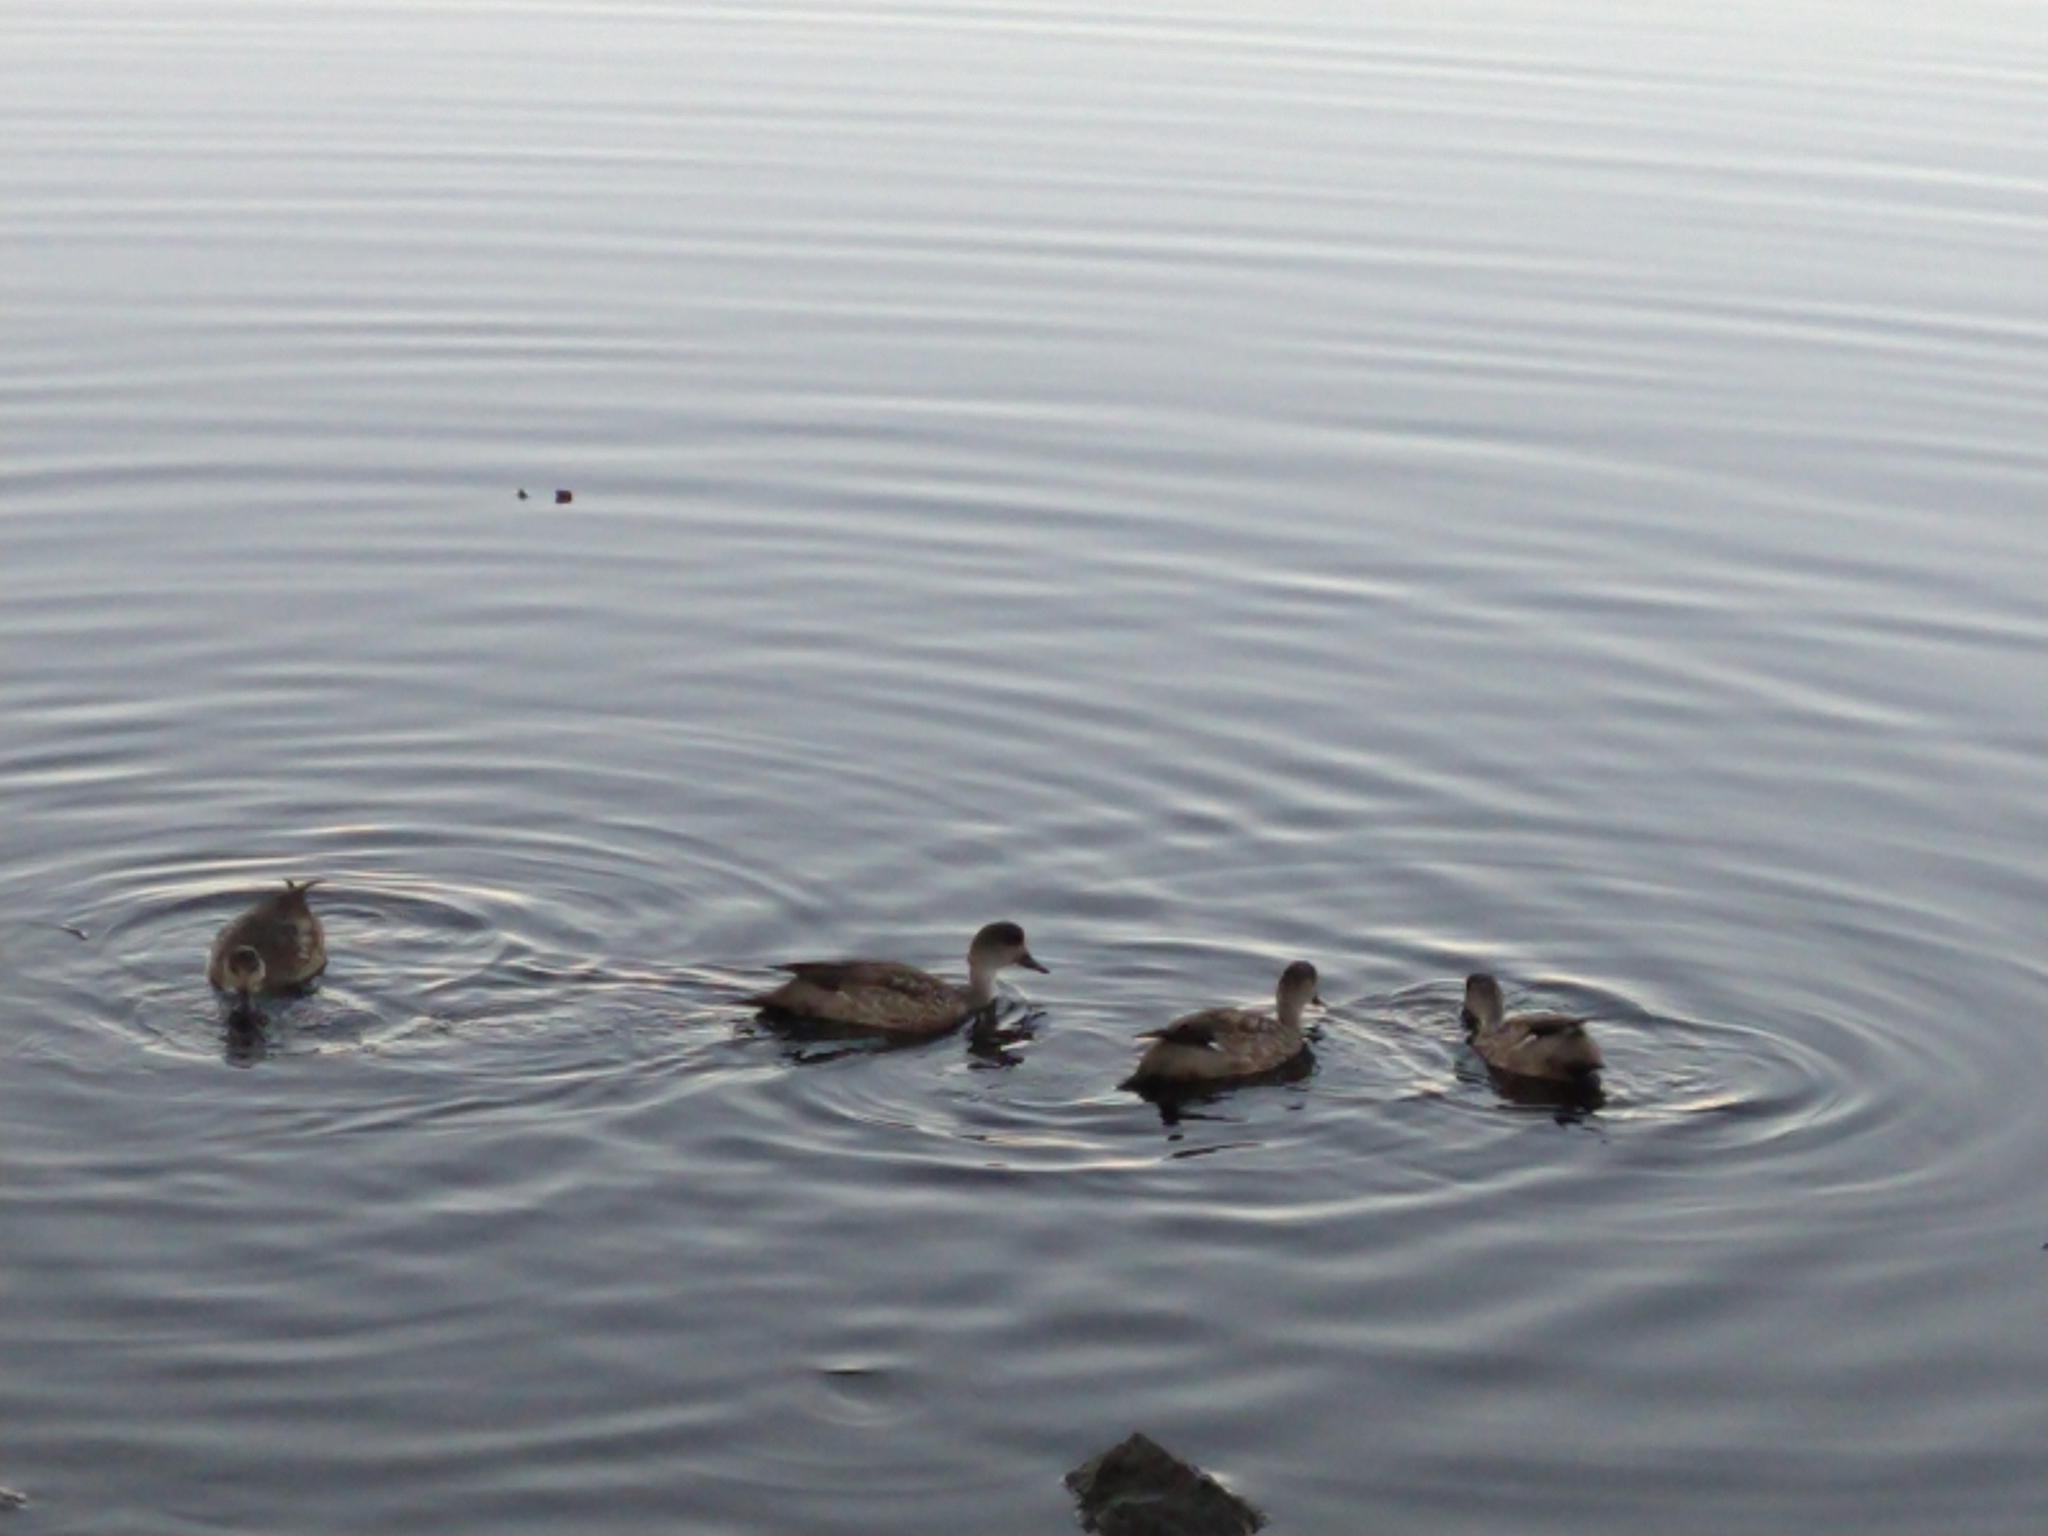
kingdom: Animalia
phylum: Chordata
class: Aves
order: Anseriformes
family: Anatidae
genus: Lophonetta
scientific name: Lophonetta specularioides
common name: Crested duck
